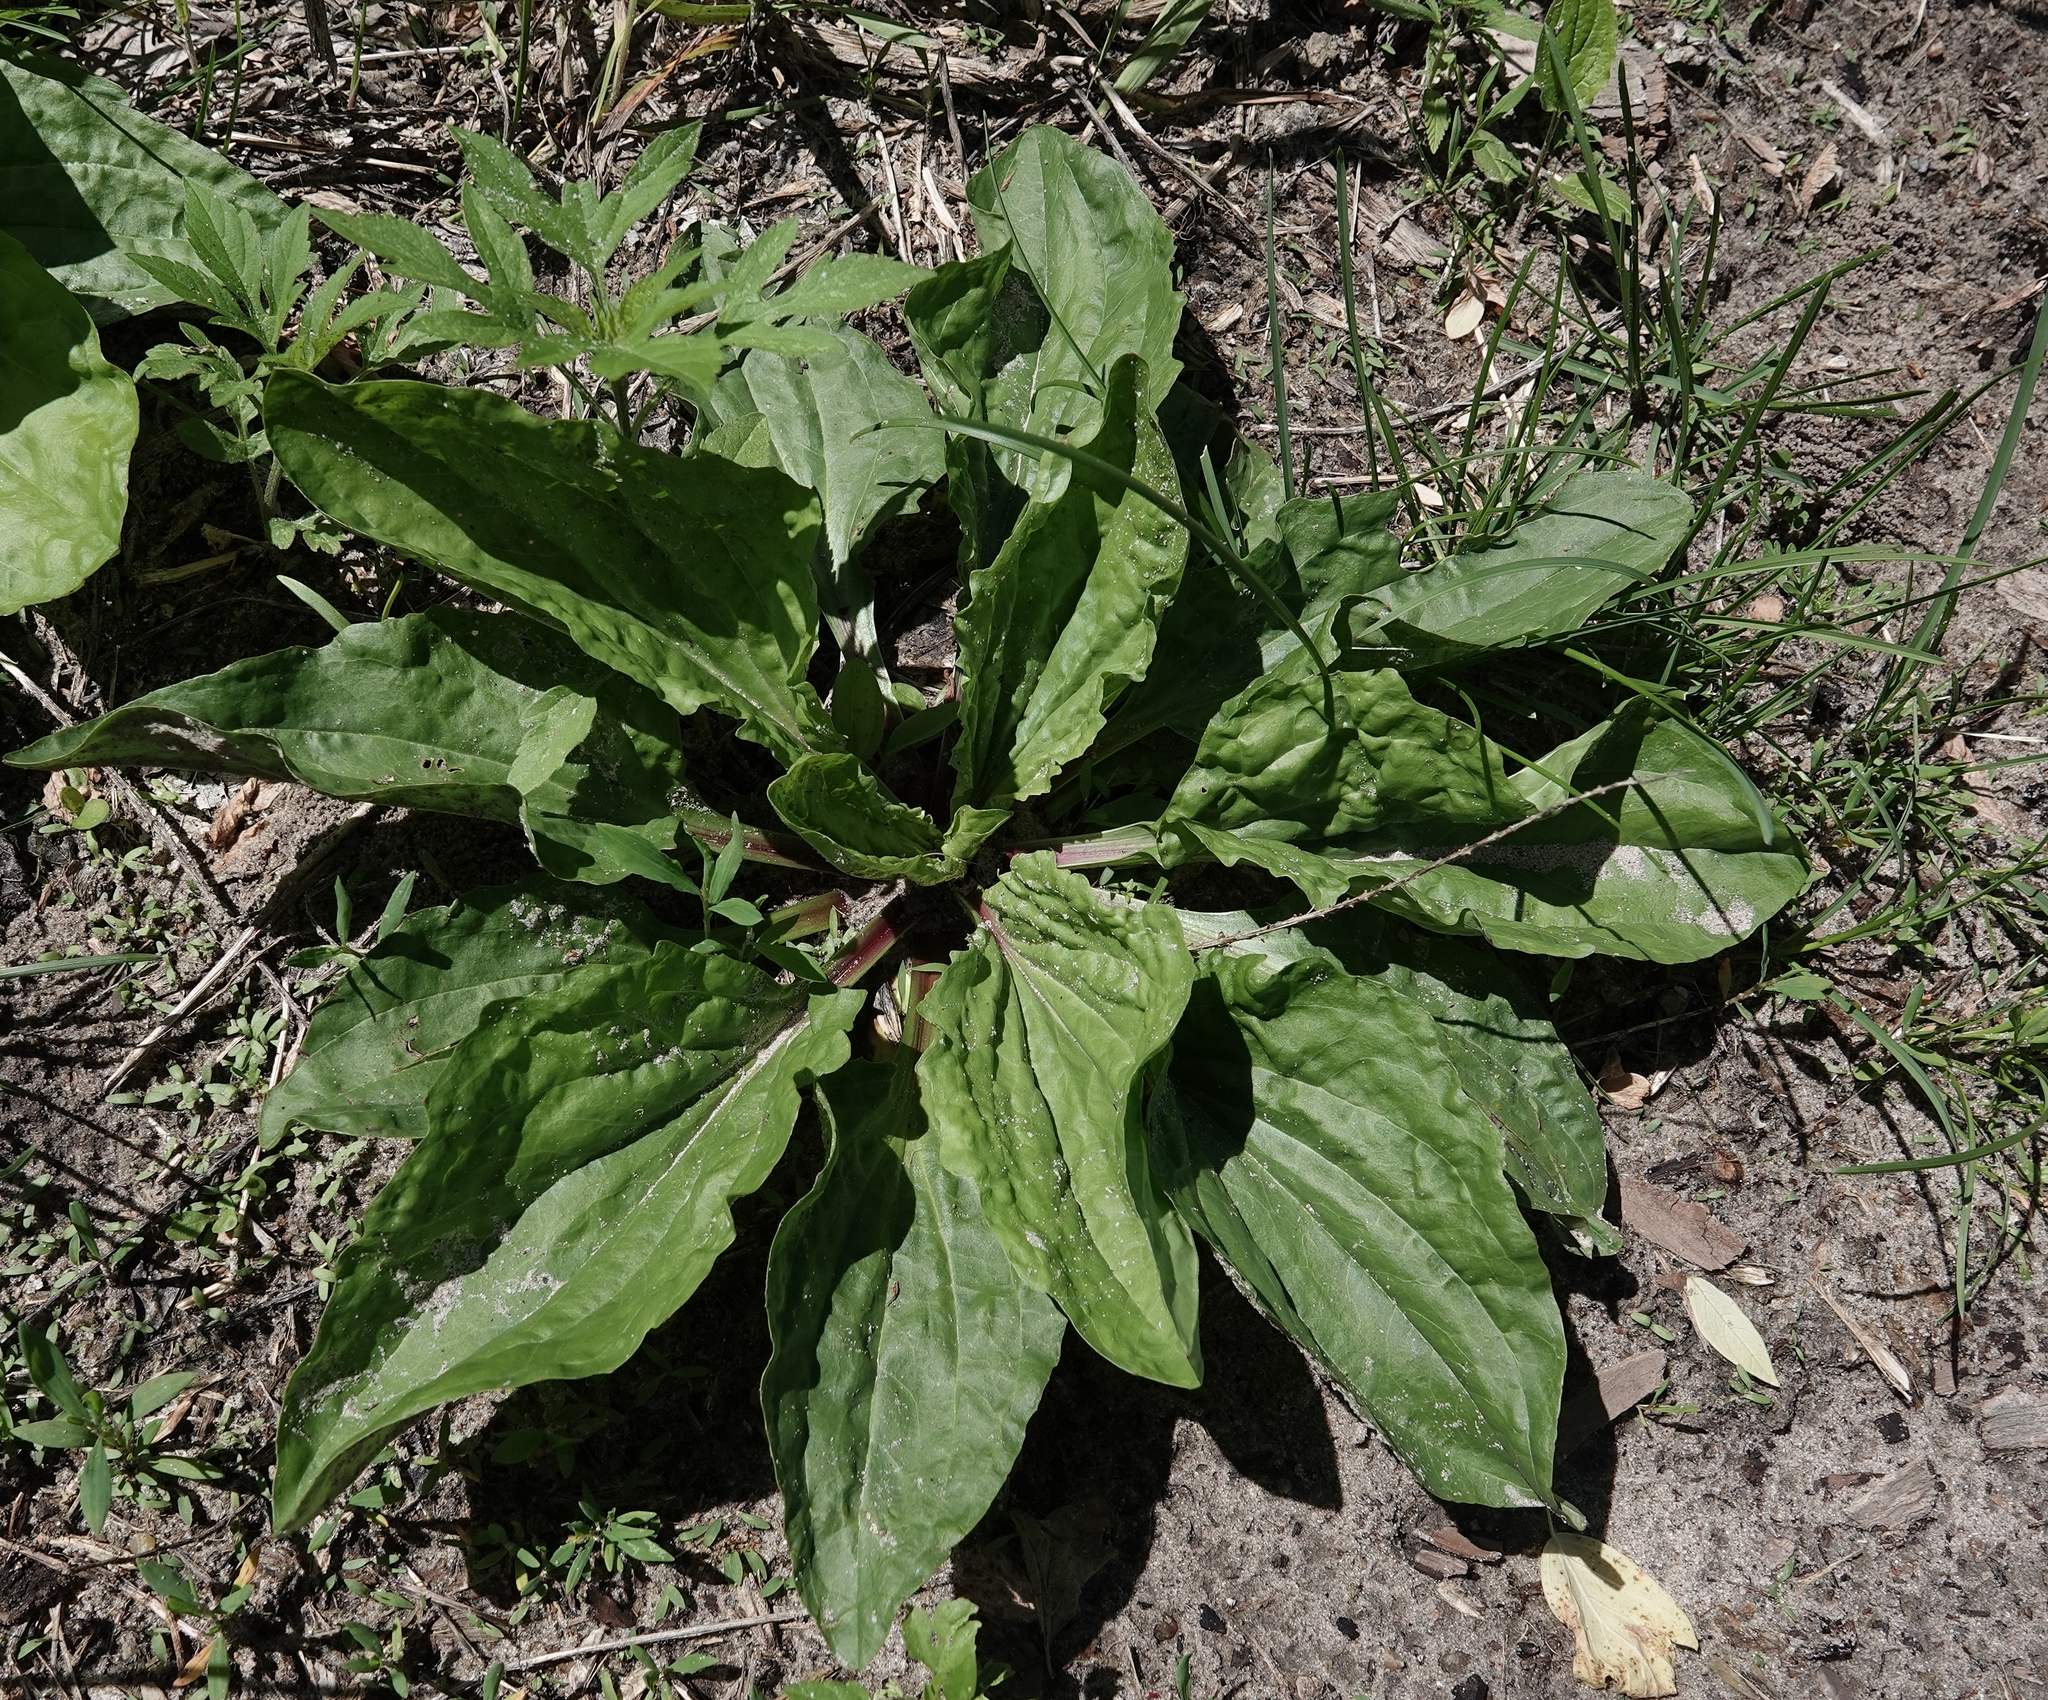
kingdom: Plantae
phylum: Tracheophyta
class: Magnoliopsida
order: Lamiales
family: Plantaginaceae
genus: Plantago
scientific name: Plantago rugelii
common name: American plantain
